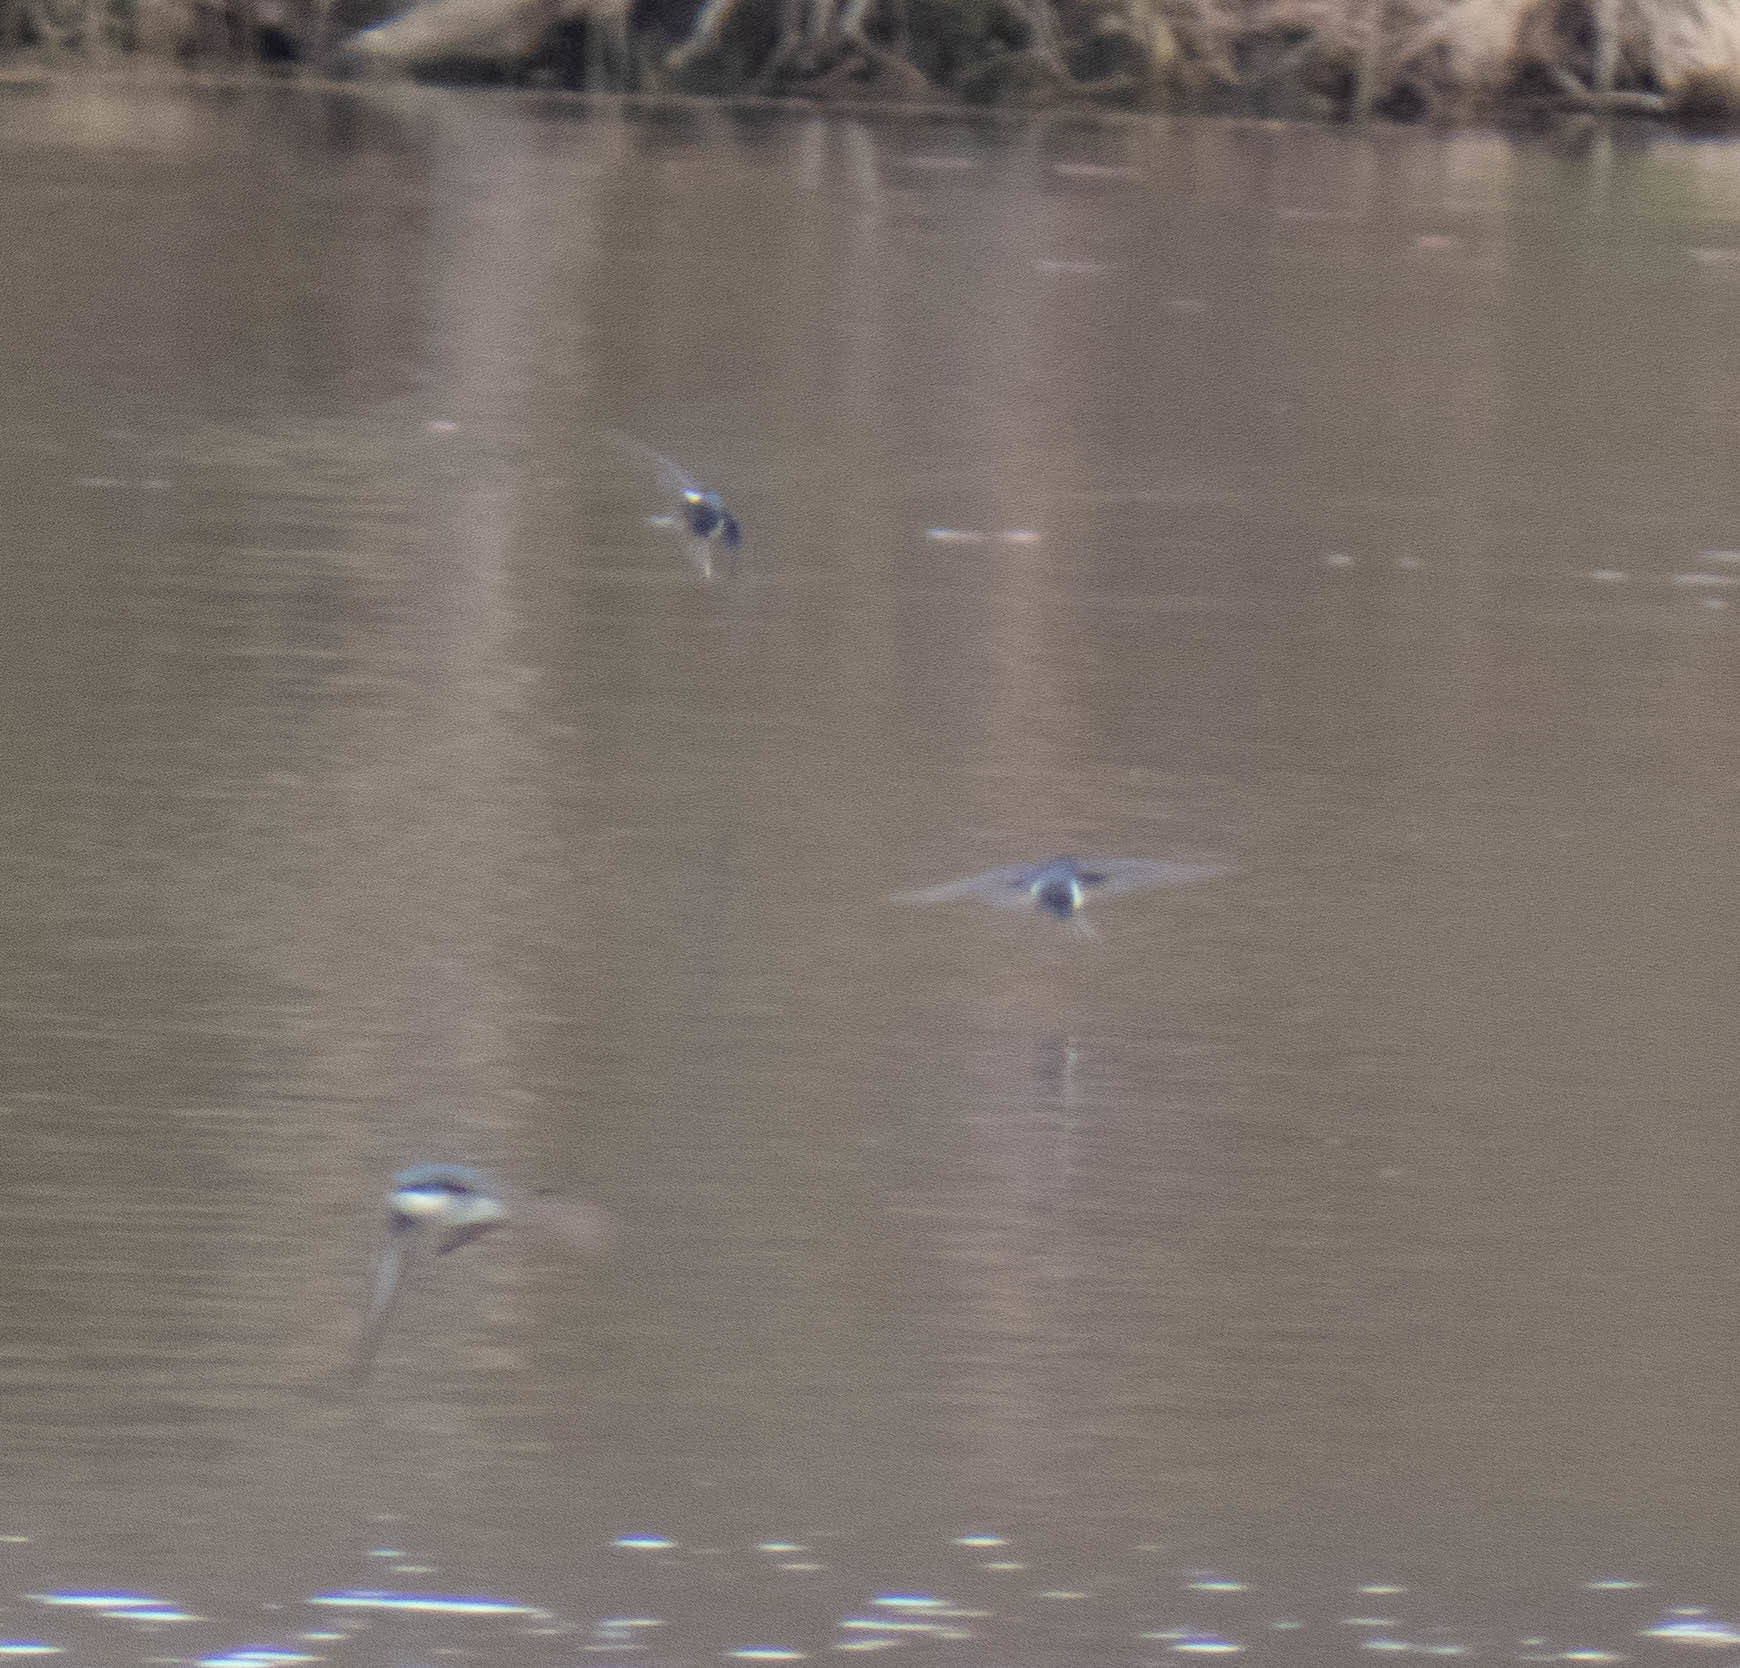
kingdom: Animalia
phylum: Chordata
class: Aves
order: Passeriformes
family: Hirundinidae
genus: Tachycineta
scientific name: Tachycineta bicolor
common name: Tree swallow
